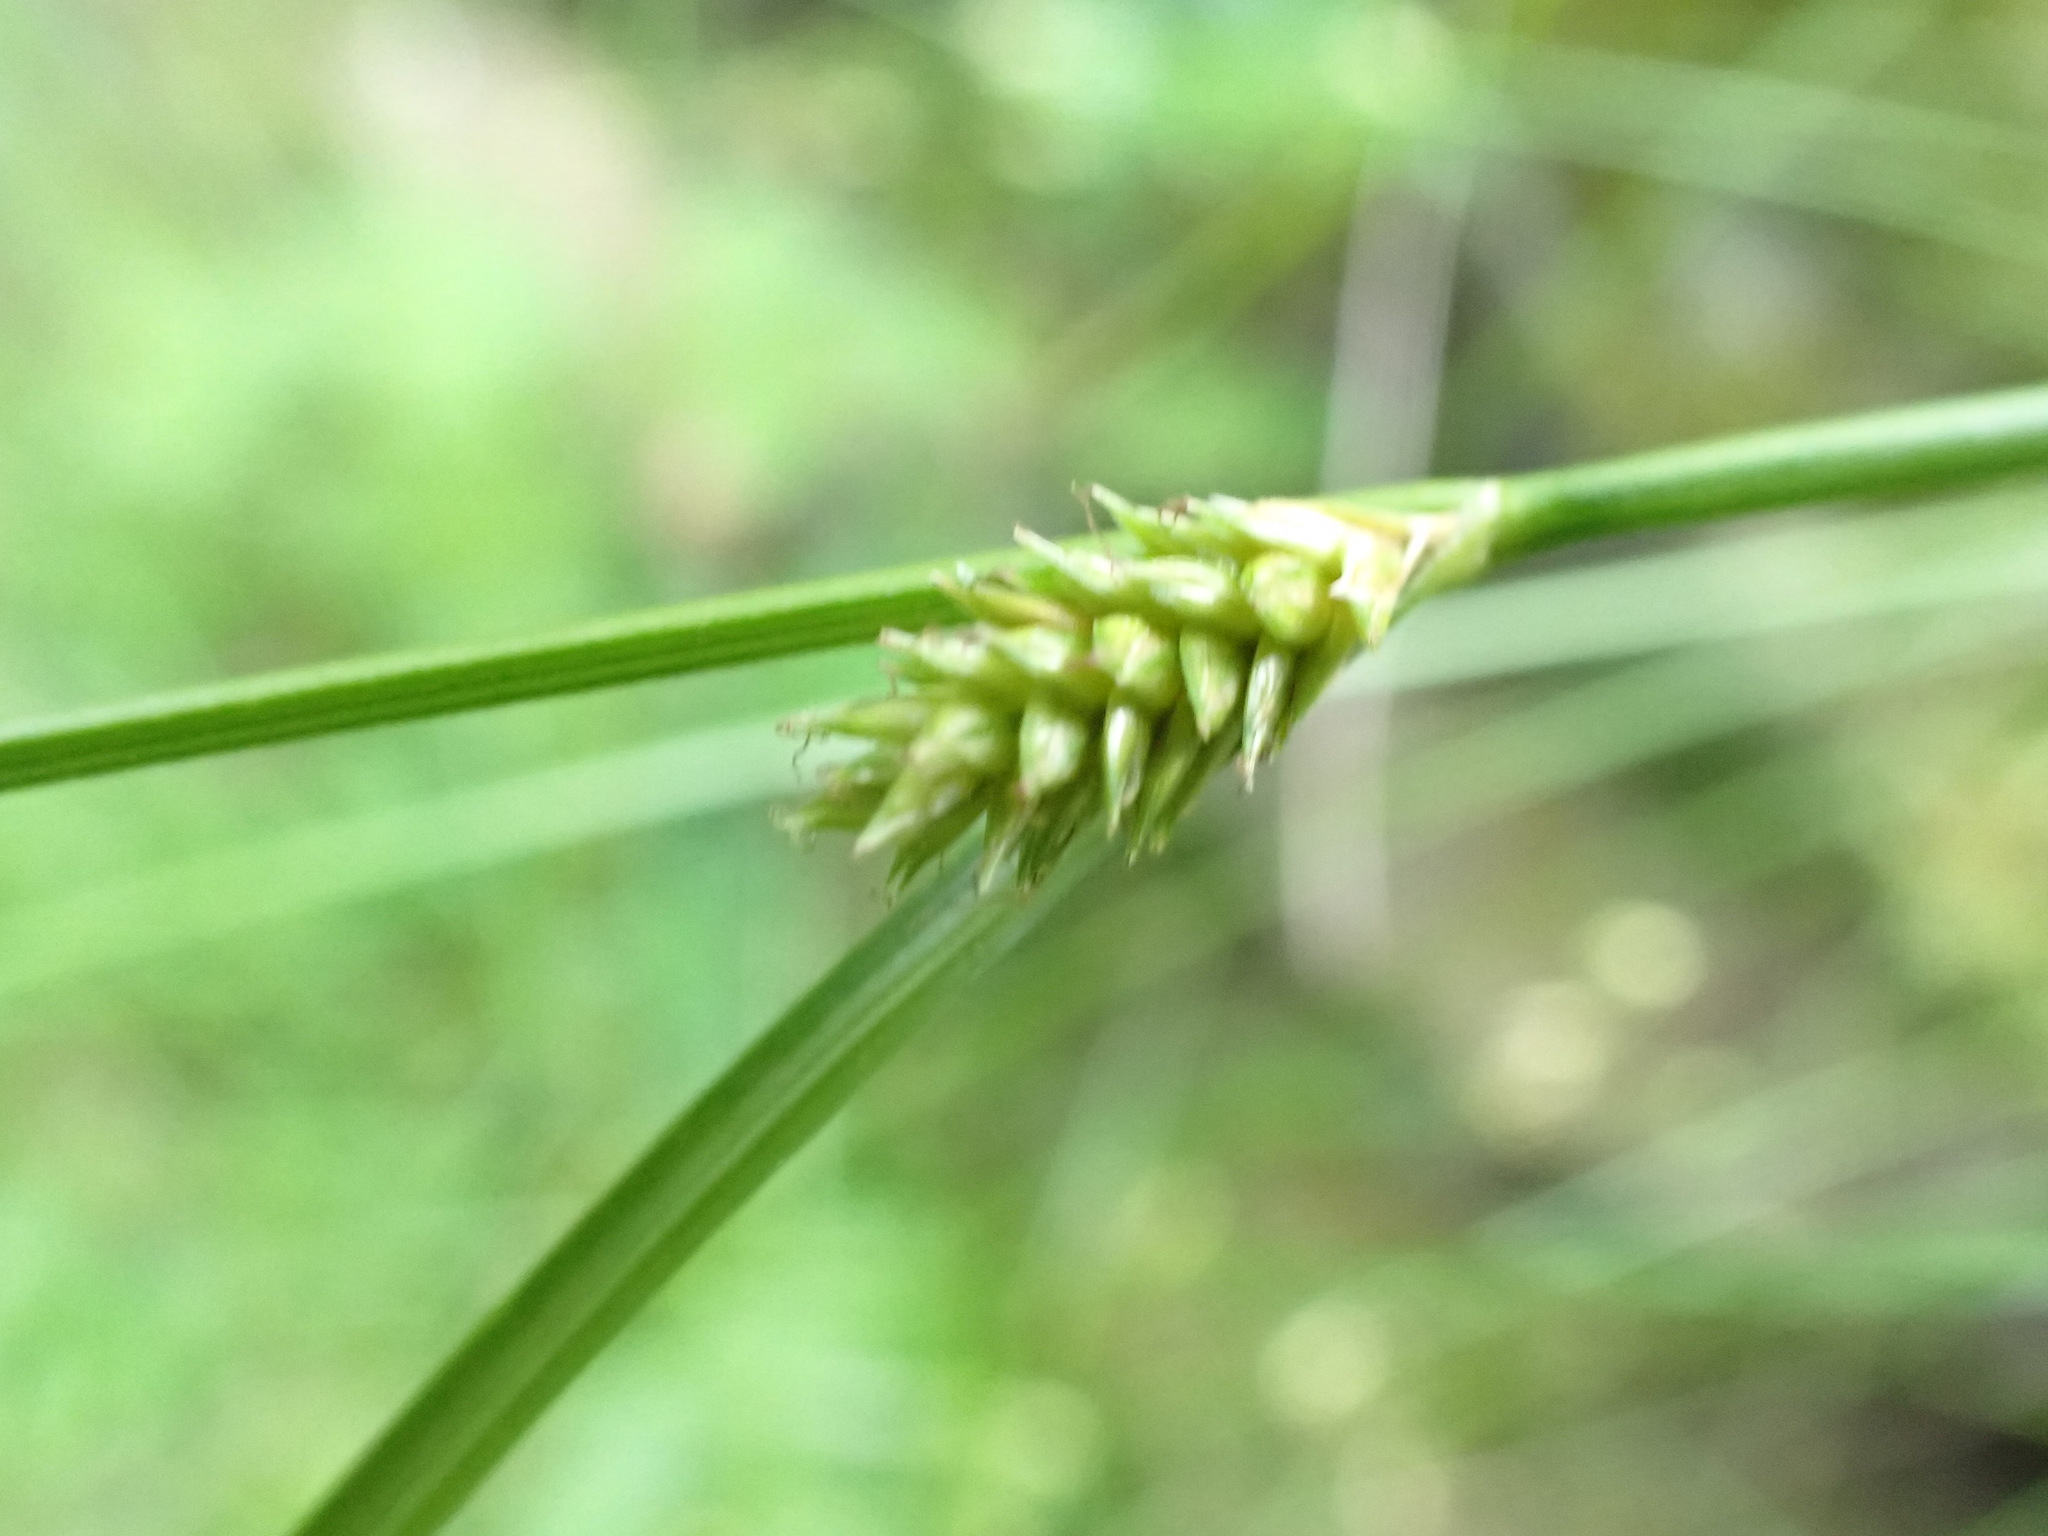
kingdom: Plantae
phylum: Tracheophyta
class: Liliopsida
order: Poales
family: Cyperaceae
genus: Carex
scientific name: Carex remota
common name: Remote sedge
